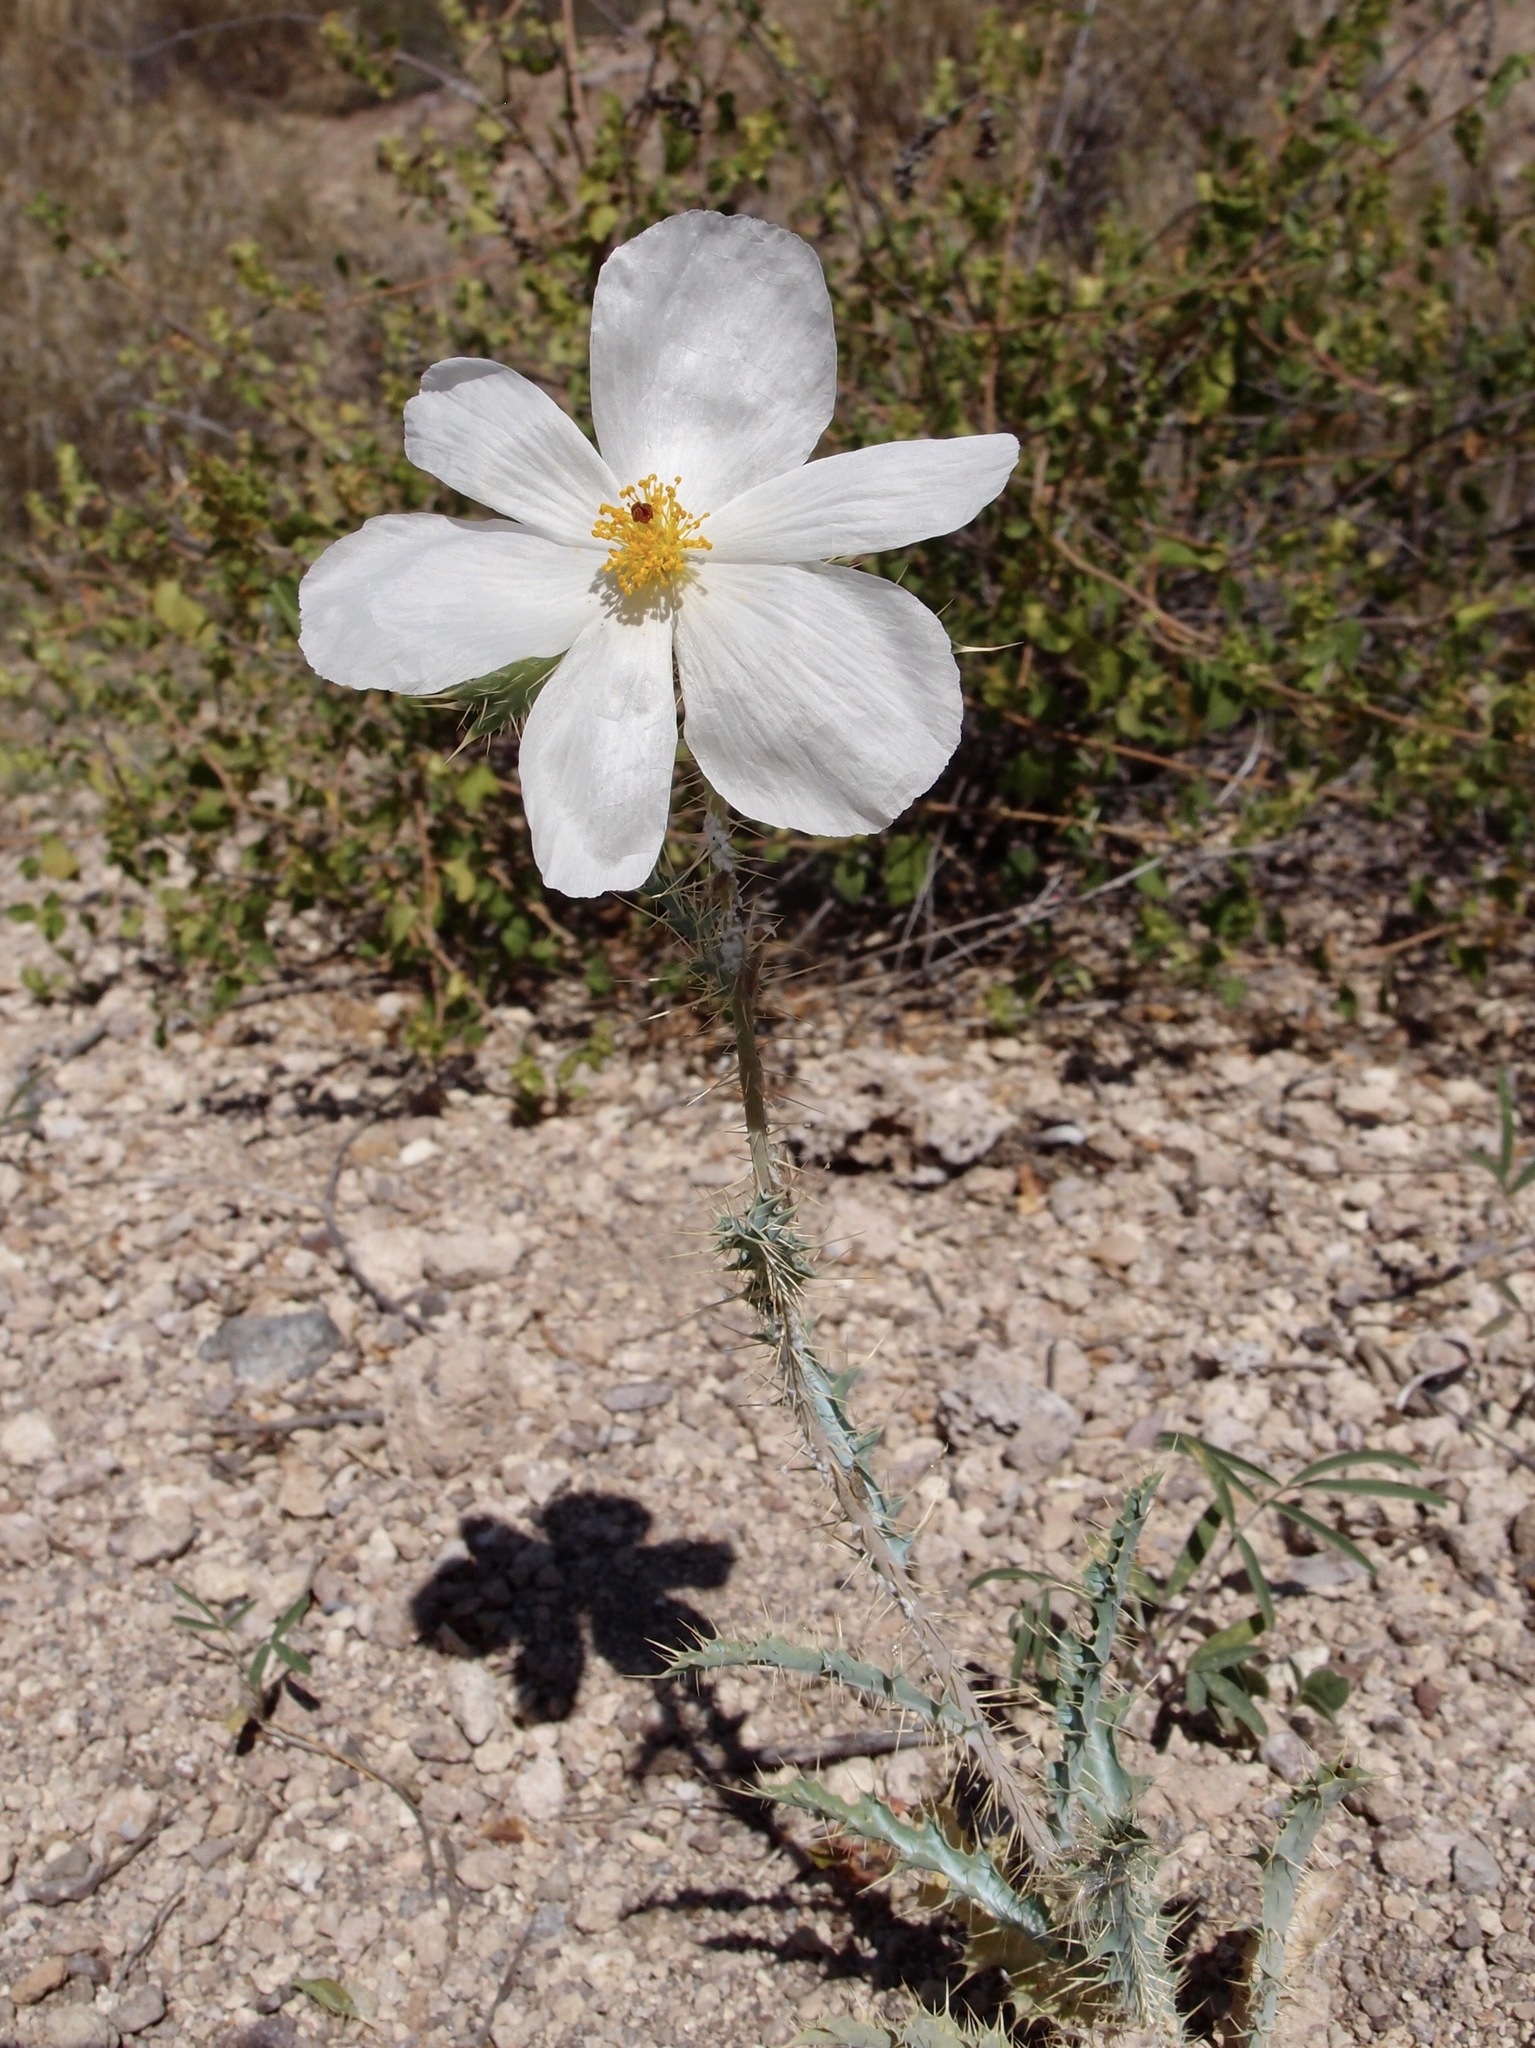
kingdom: Plantae
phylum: Tracheophyta
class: Magnoliopsida
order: Ranunculales
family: Papaveraceae
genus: Argemone
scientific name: Argemone gracilenta
